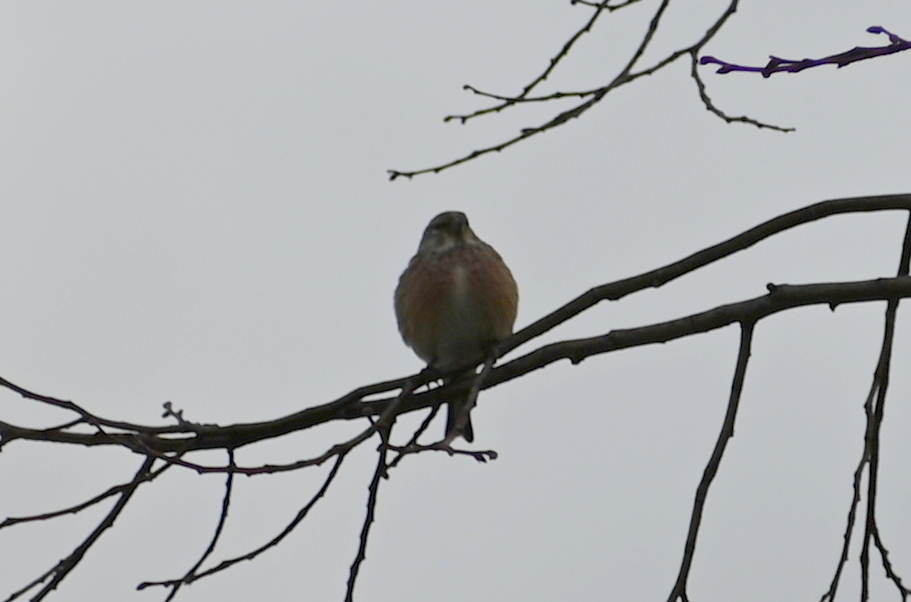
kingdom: Animalia
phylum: Chordata
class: Aves
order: Passeriformes
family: Fringillidae
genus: Linaria
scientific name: Linaria cannabina
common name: Common linnet
